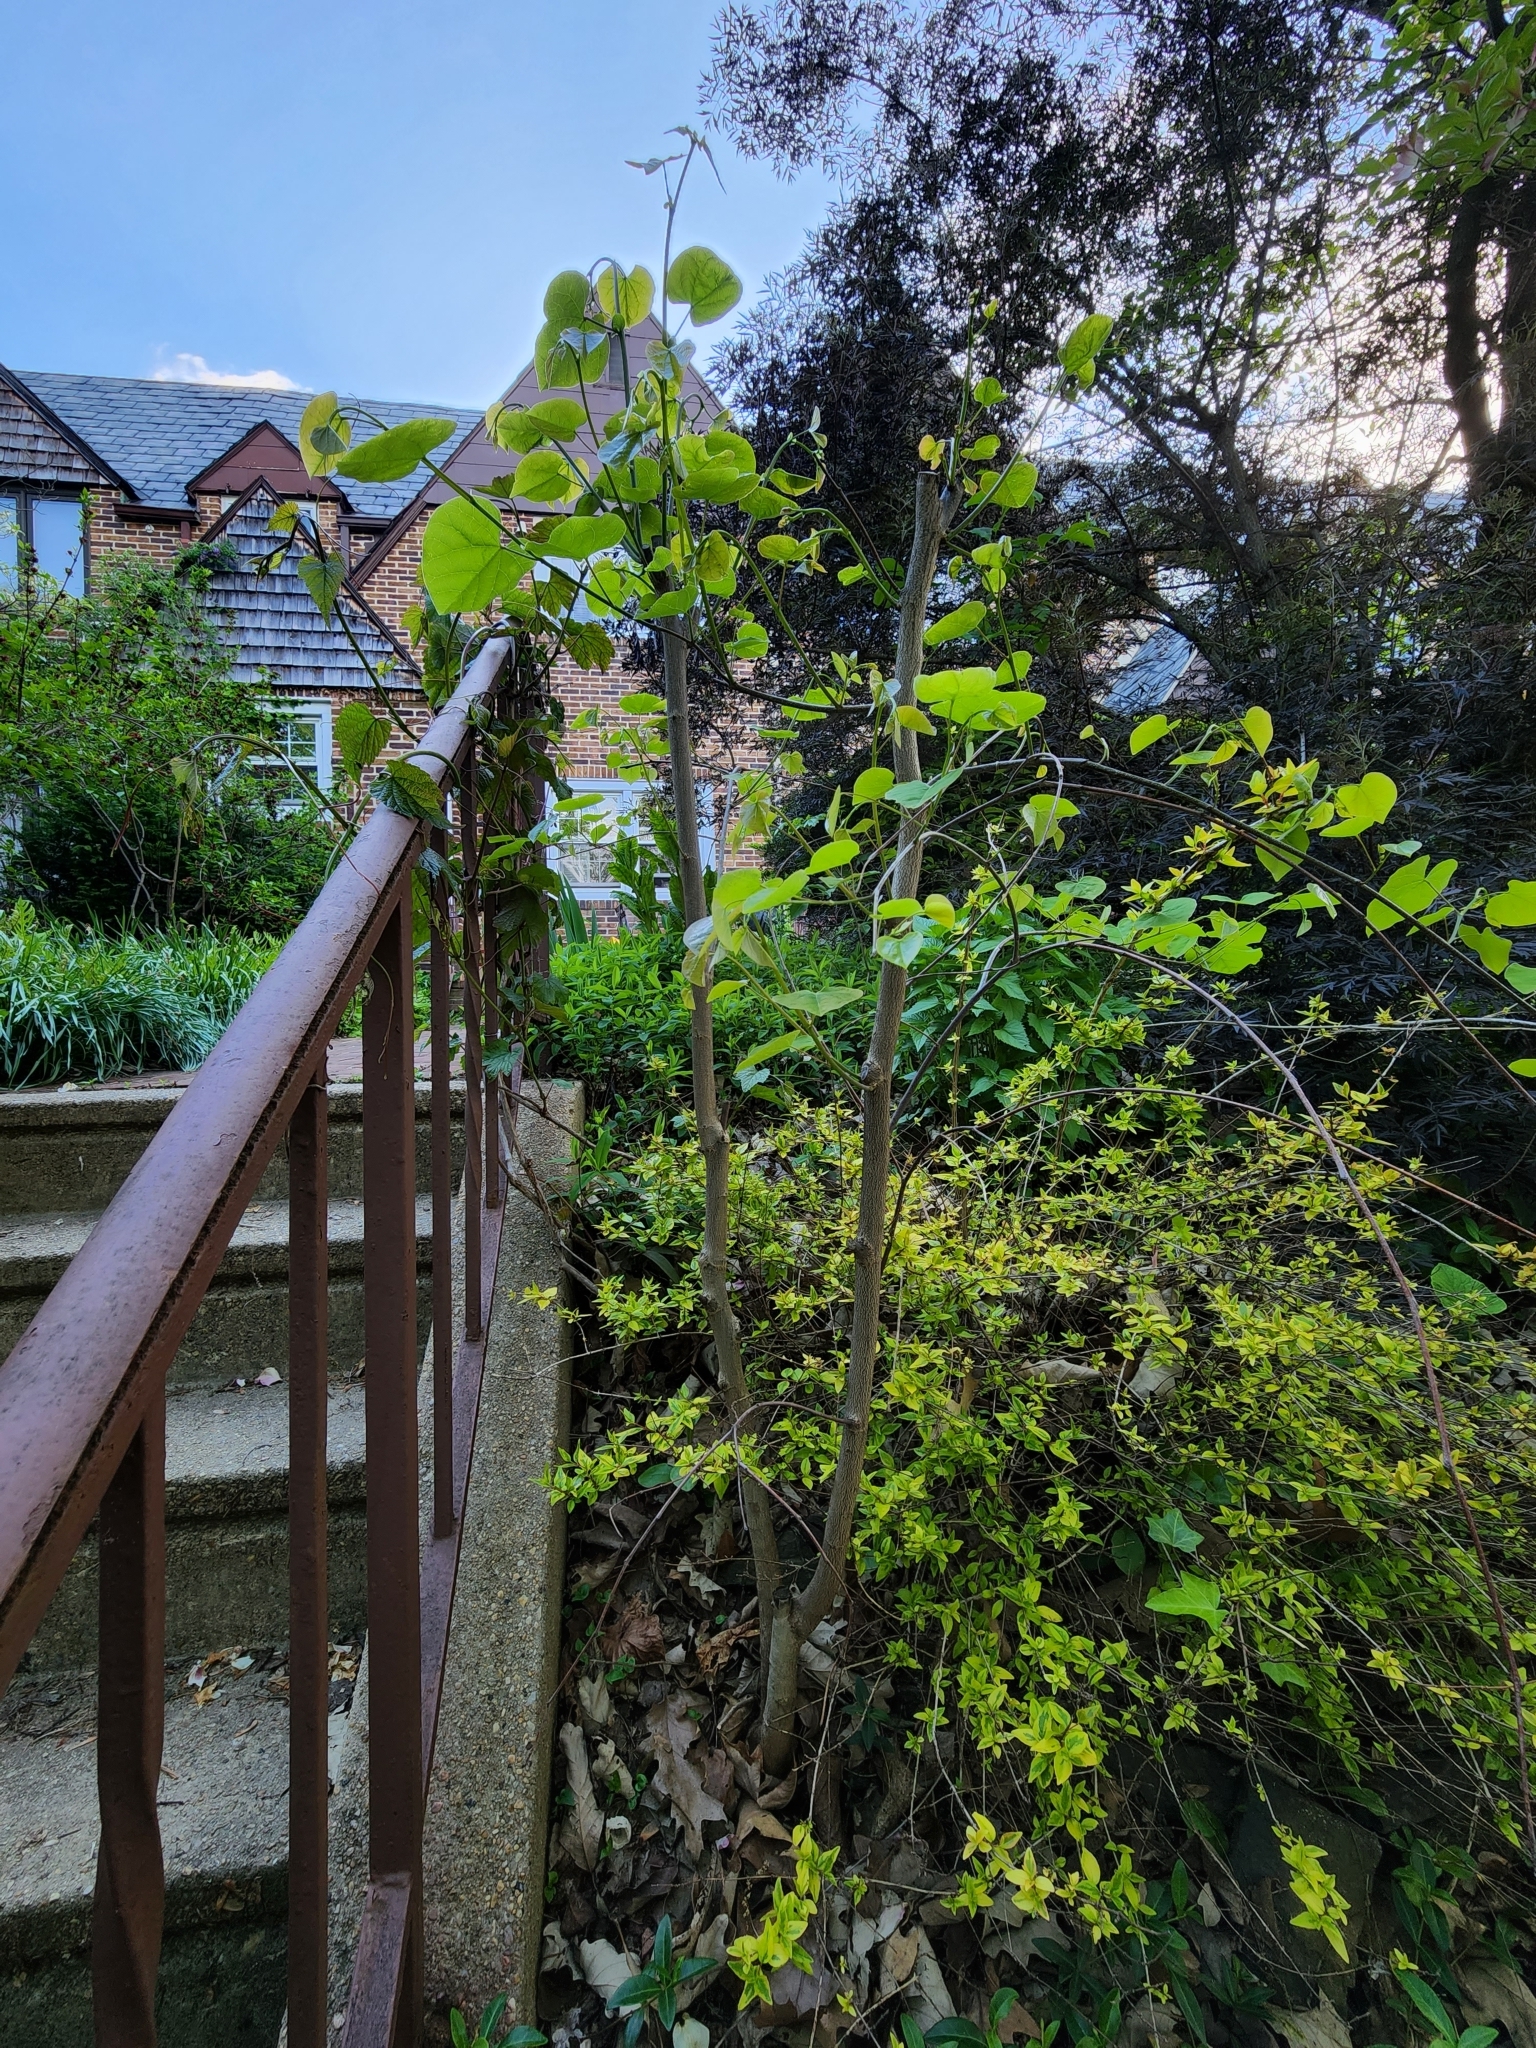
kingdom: Plantae
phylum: Tracheophyta
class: Magnoliopsida
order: Fabales
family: Fabaceae
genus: Cercis
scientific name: Cercis canadensis
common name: Eastern redbud
